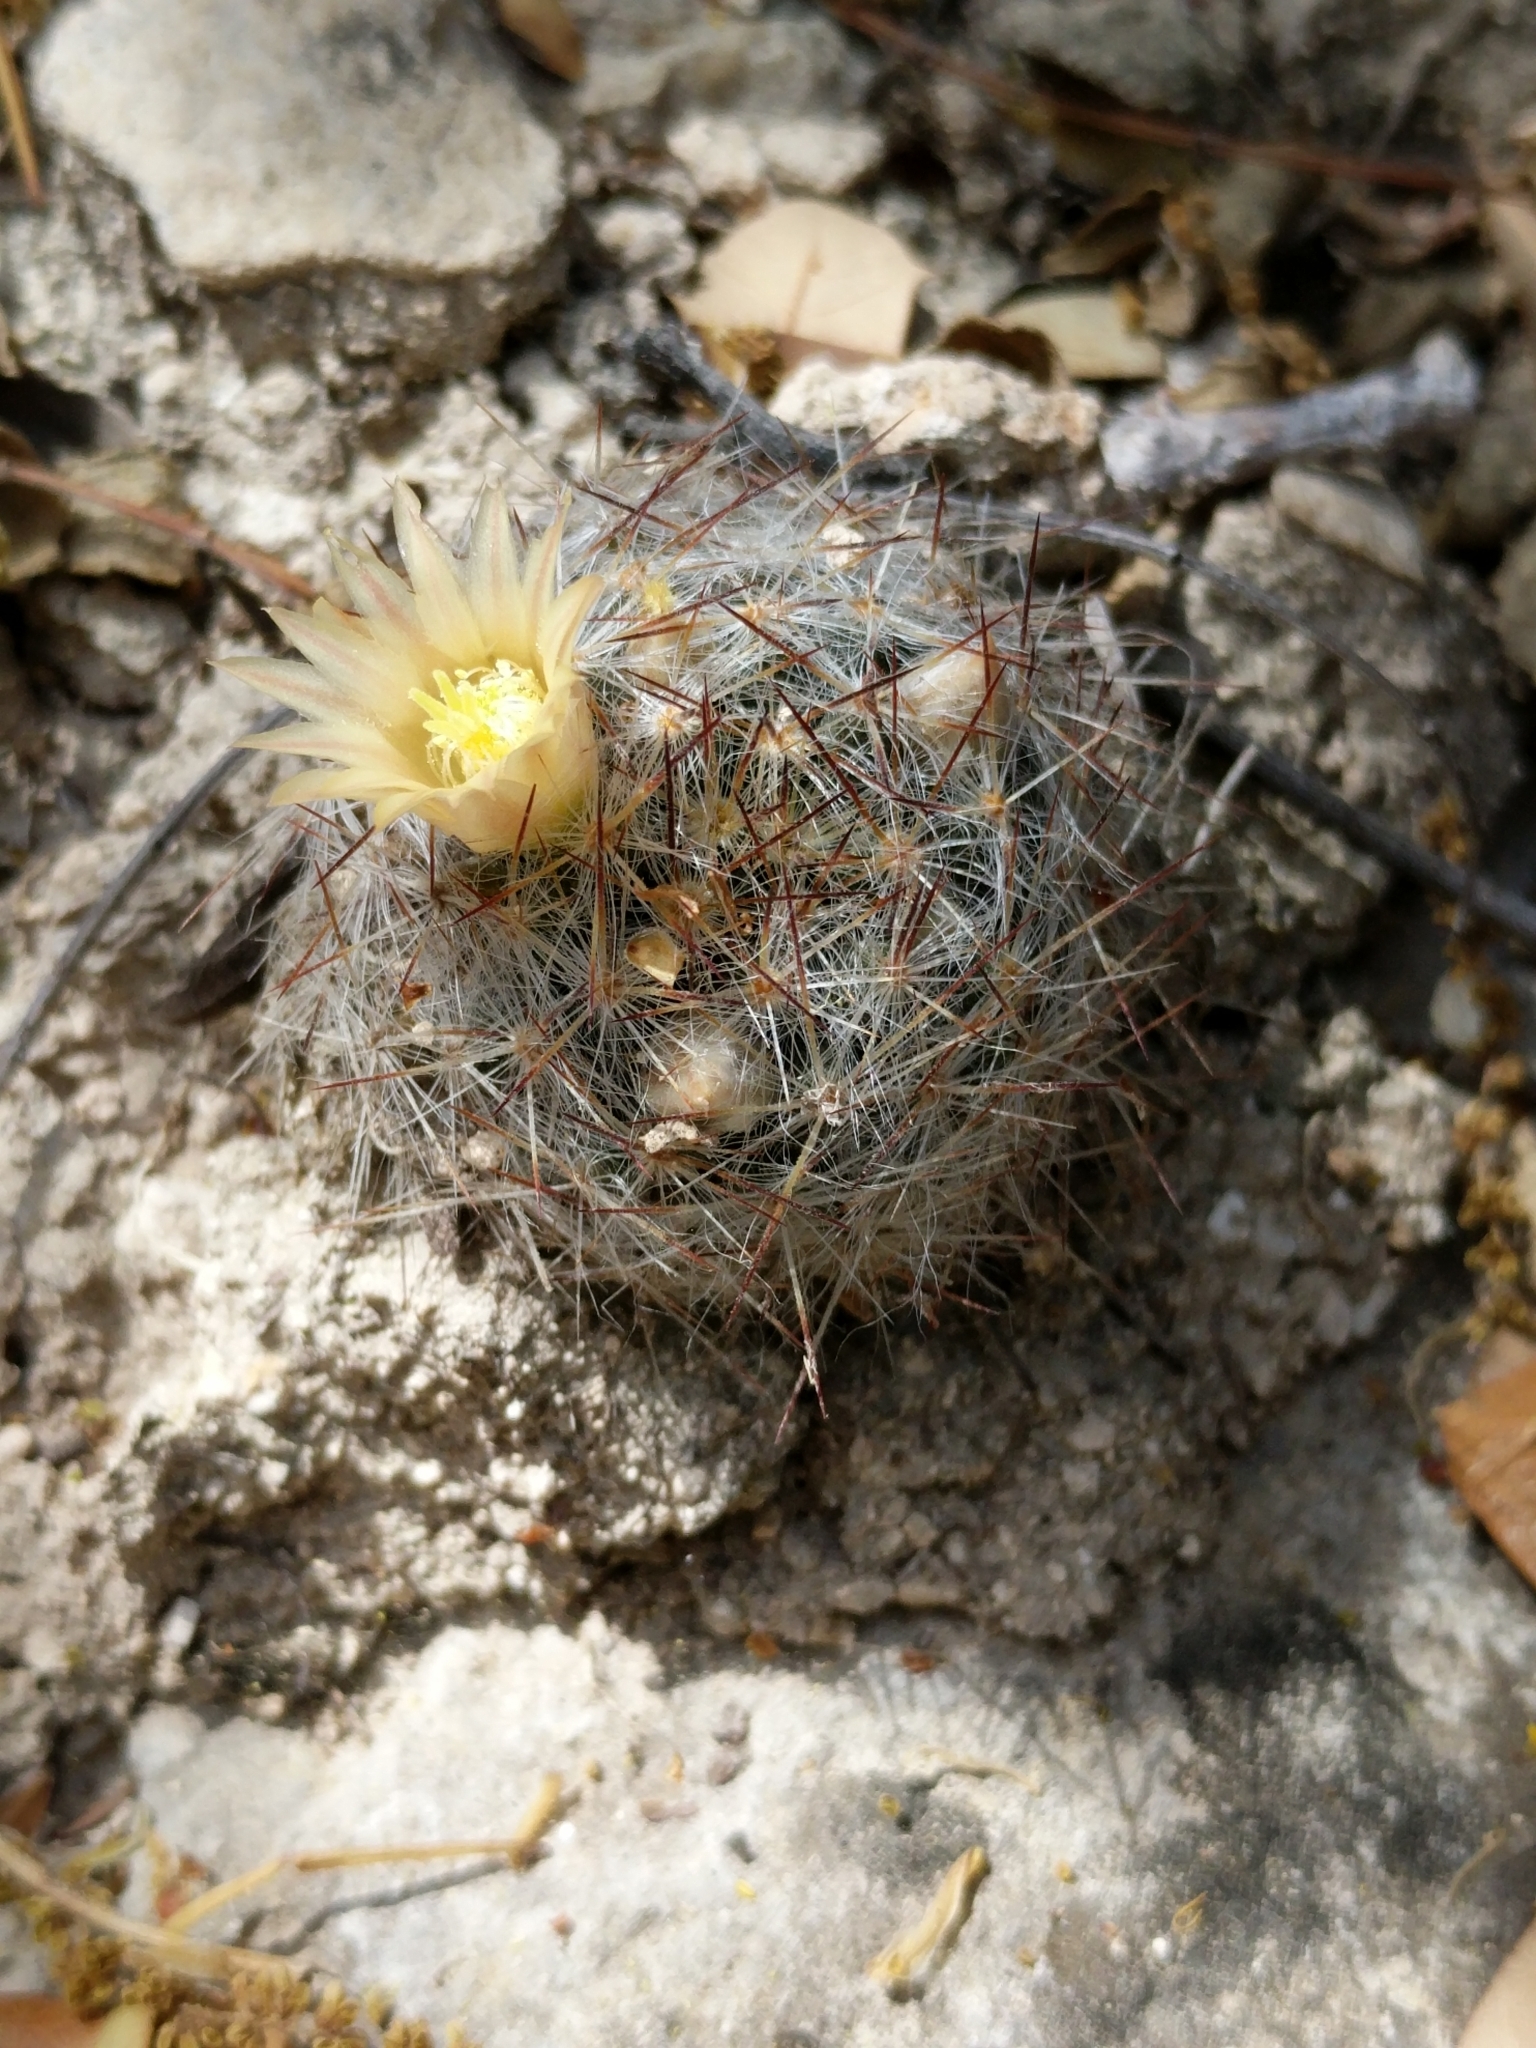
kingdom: Plantae
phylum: Tracheophyta
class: Magnoliopsida
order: Caryophyllales
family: Cactaceae
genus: Mammillaria
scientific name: Mammillaria prolifera
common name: Texas nipple cactus
